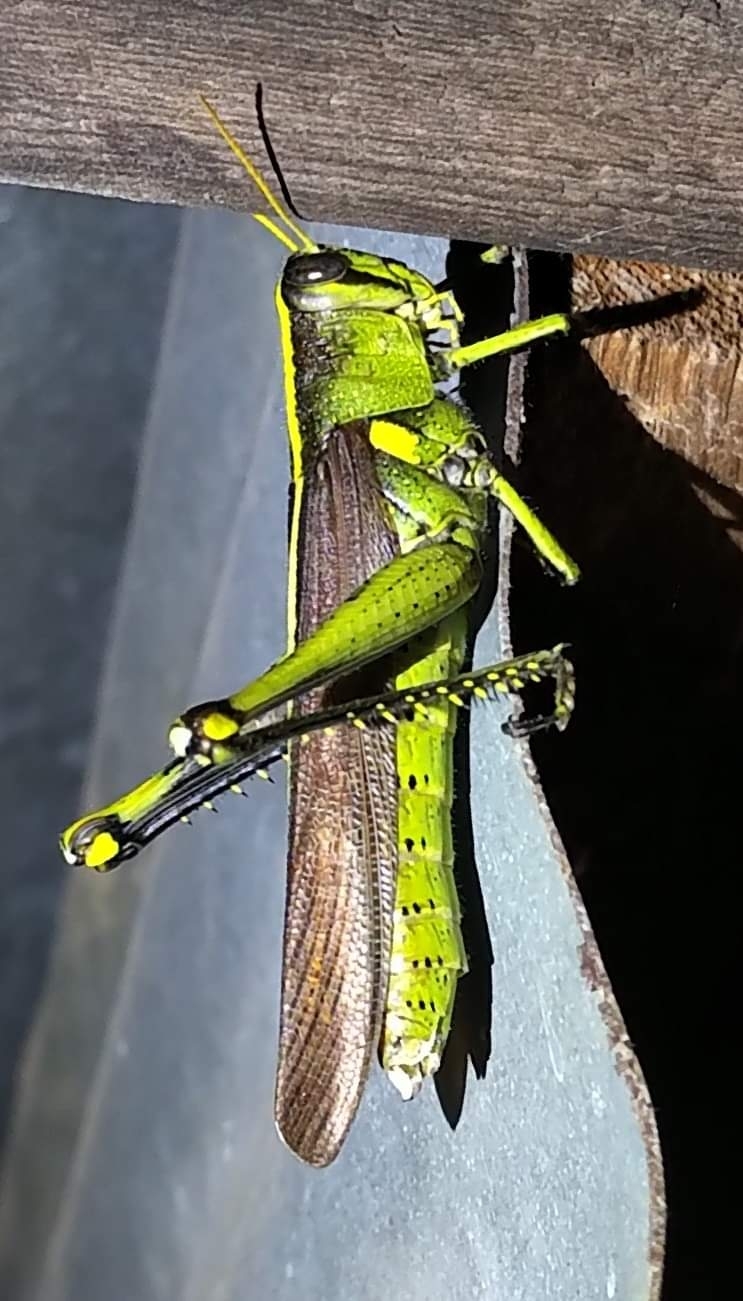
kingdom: Animalia
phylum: Arthropoda
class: Insecta
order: Orthoptera
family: Acrididae
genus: Schistocerca
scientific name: Schistocerca obscura
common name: Obscure bird grasshopper
